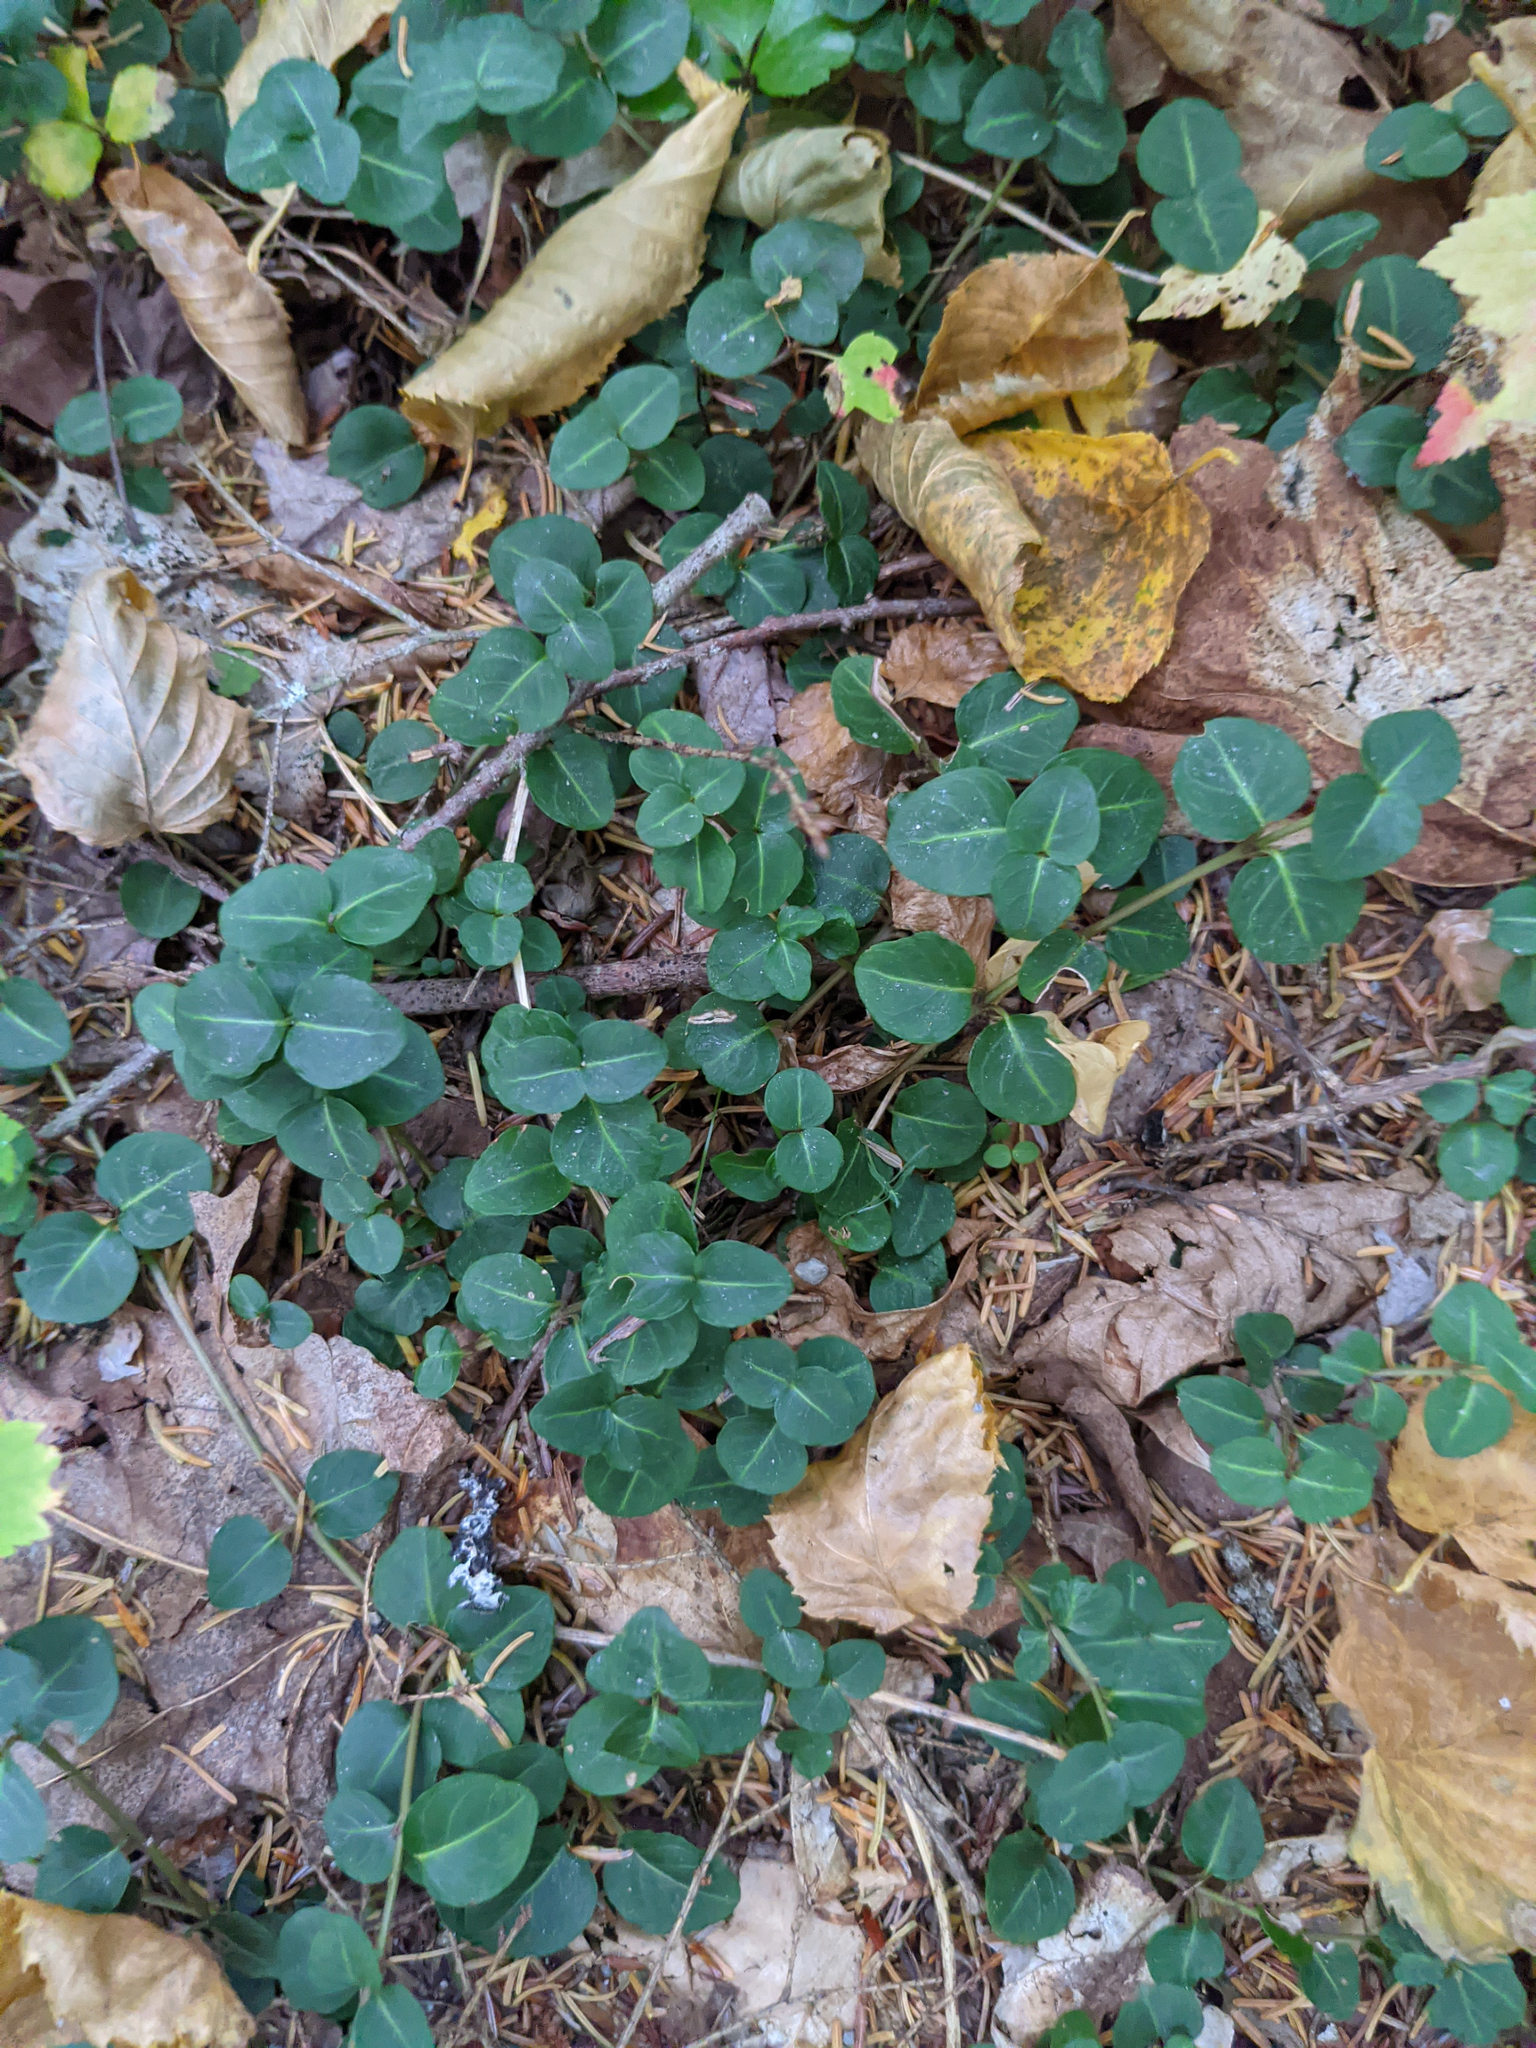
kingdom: Plantae
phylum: Tracheophyta
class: Magnoliopsida
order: Gentianales
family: Rubiaceae
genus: Mitchella
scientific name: Mitchella repens
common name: Partridge-berry
